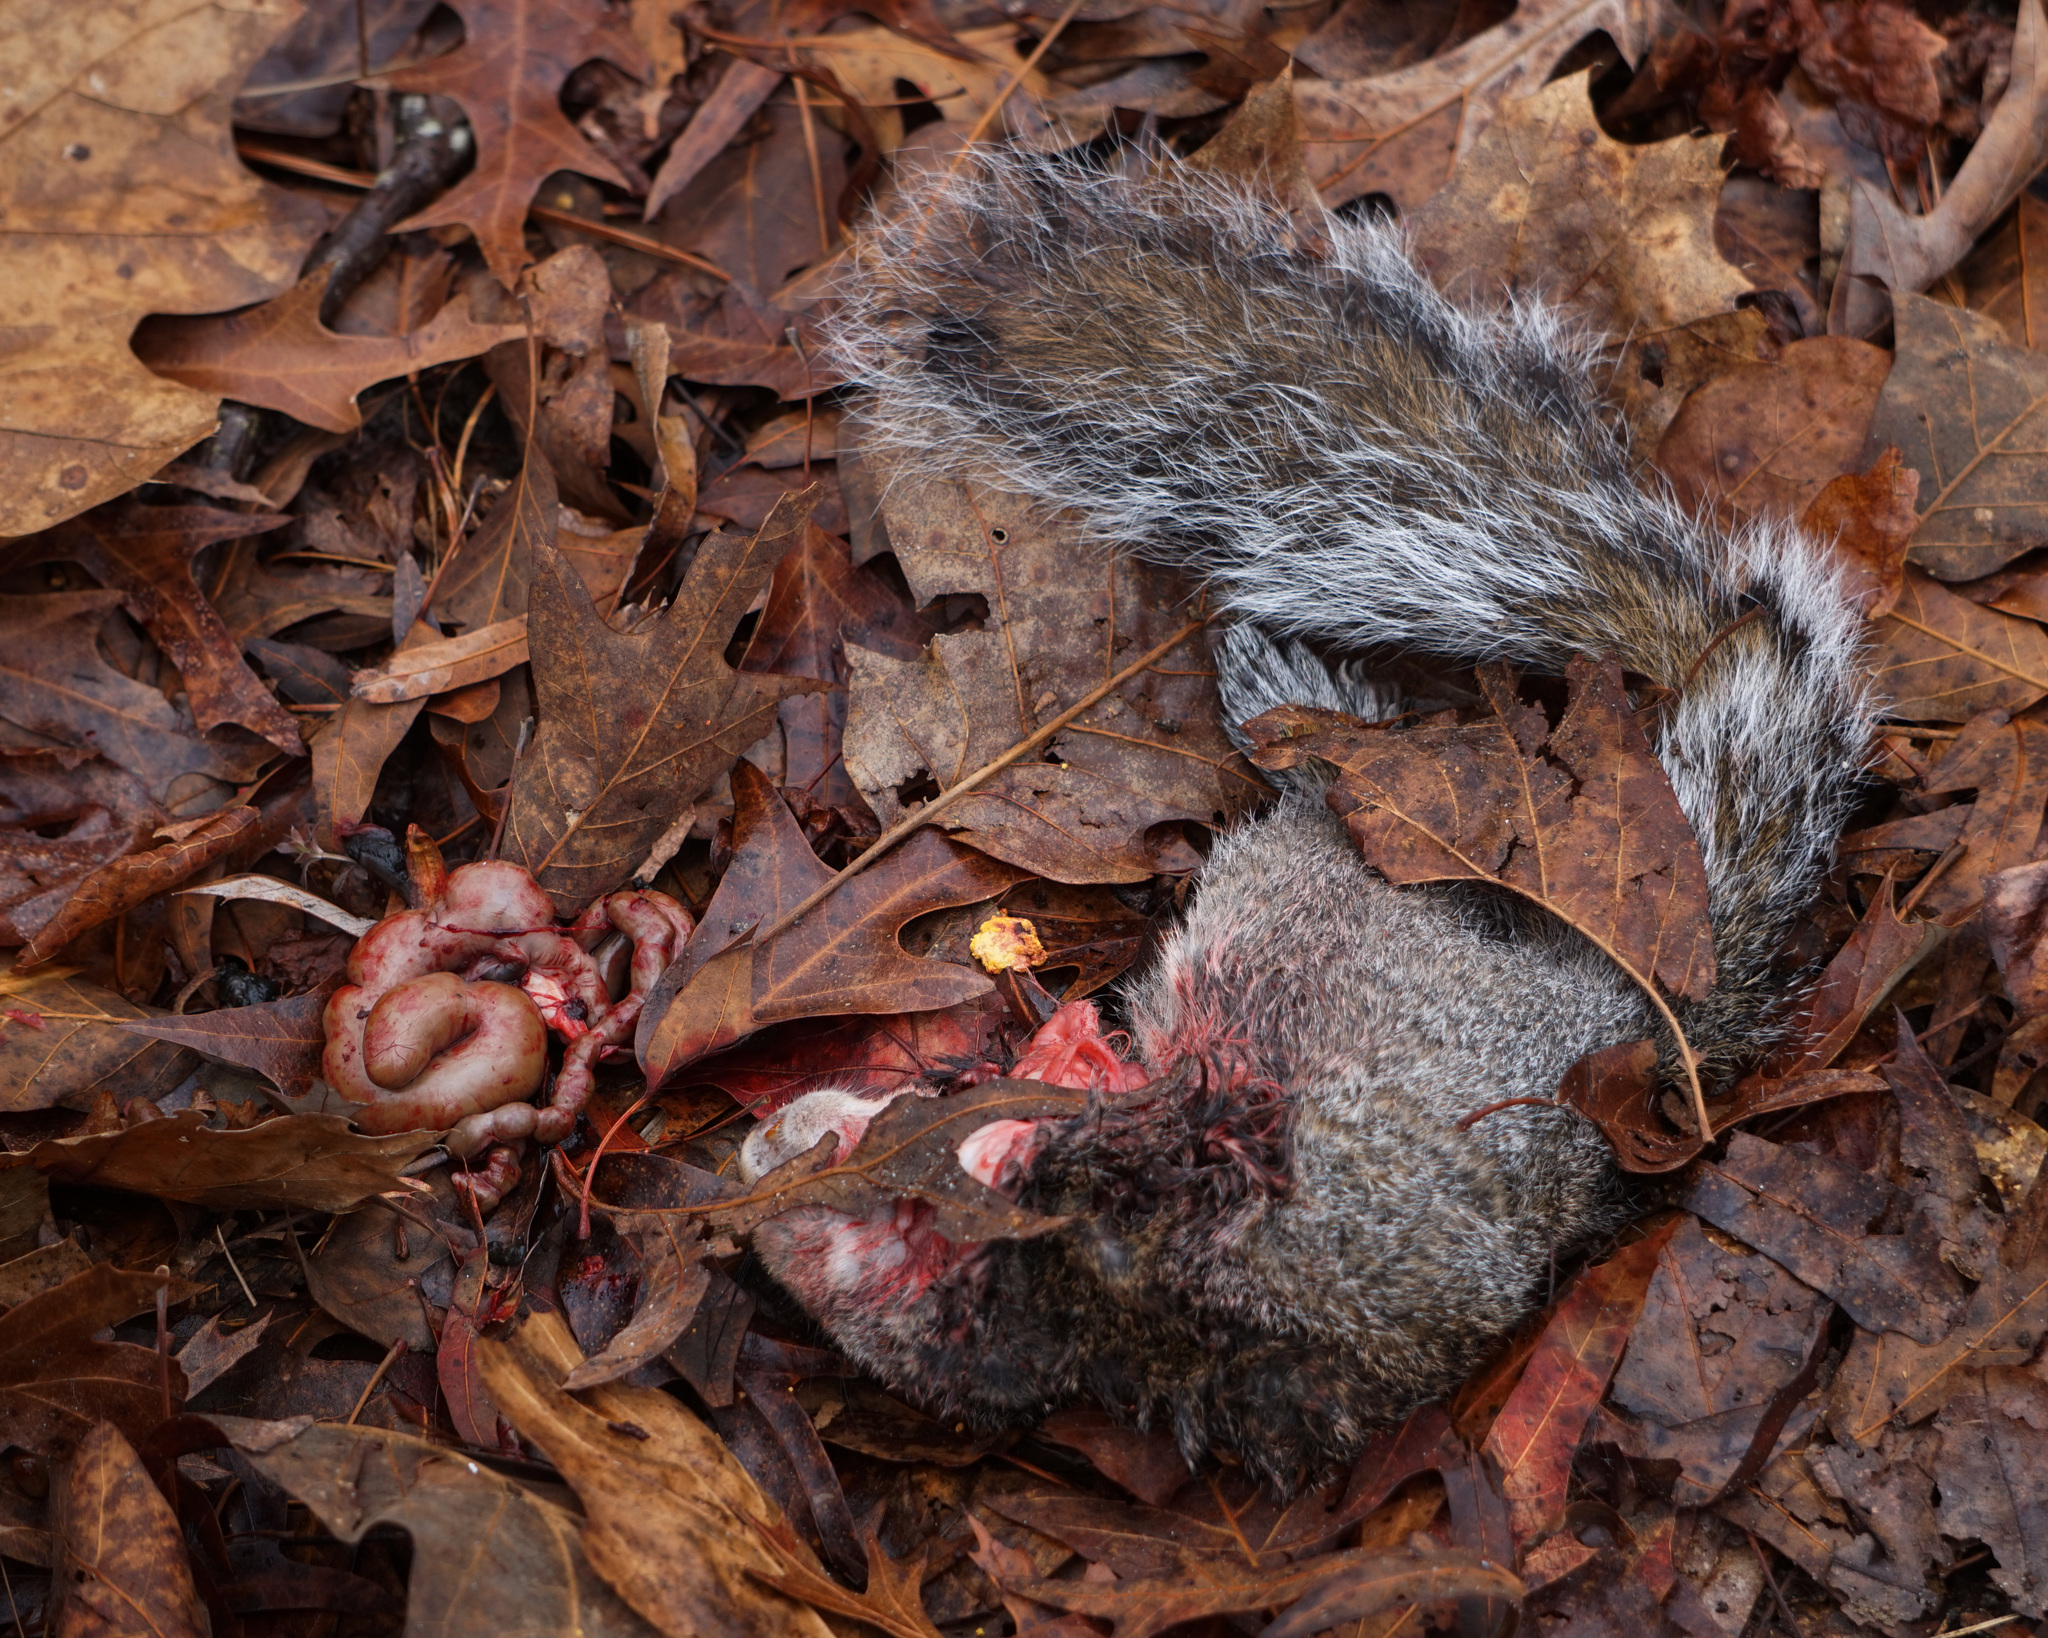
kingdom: Animalia
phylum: Chordata
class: Mammalia
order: Rodentia
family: Sciuridae
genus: Sciurus
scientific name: Sciurus carolinensis
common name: Eastern gray squirrel
